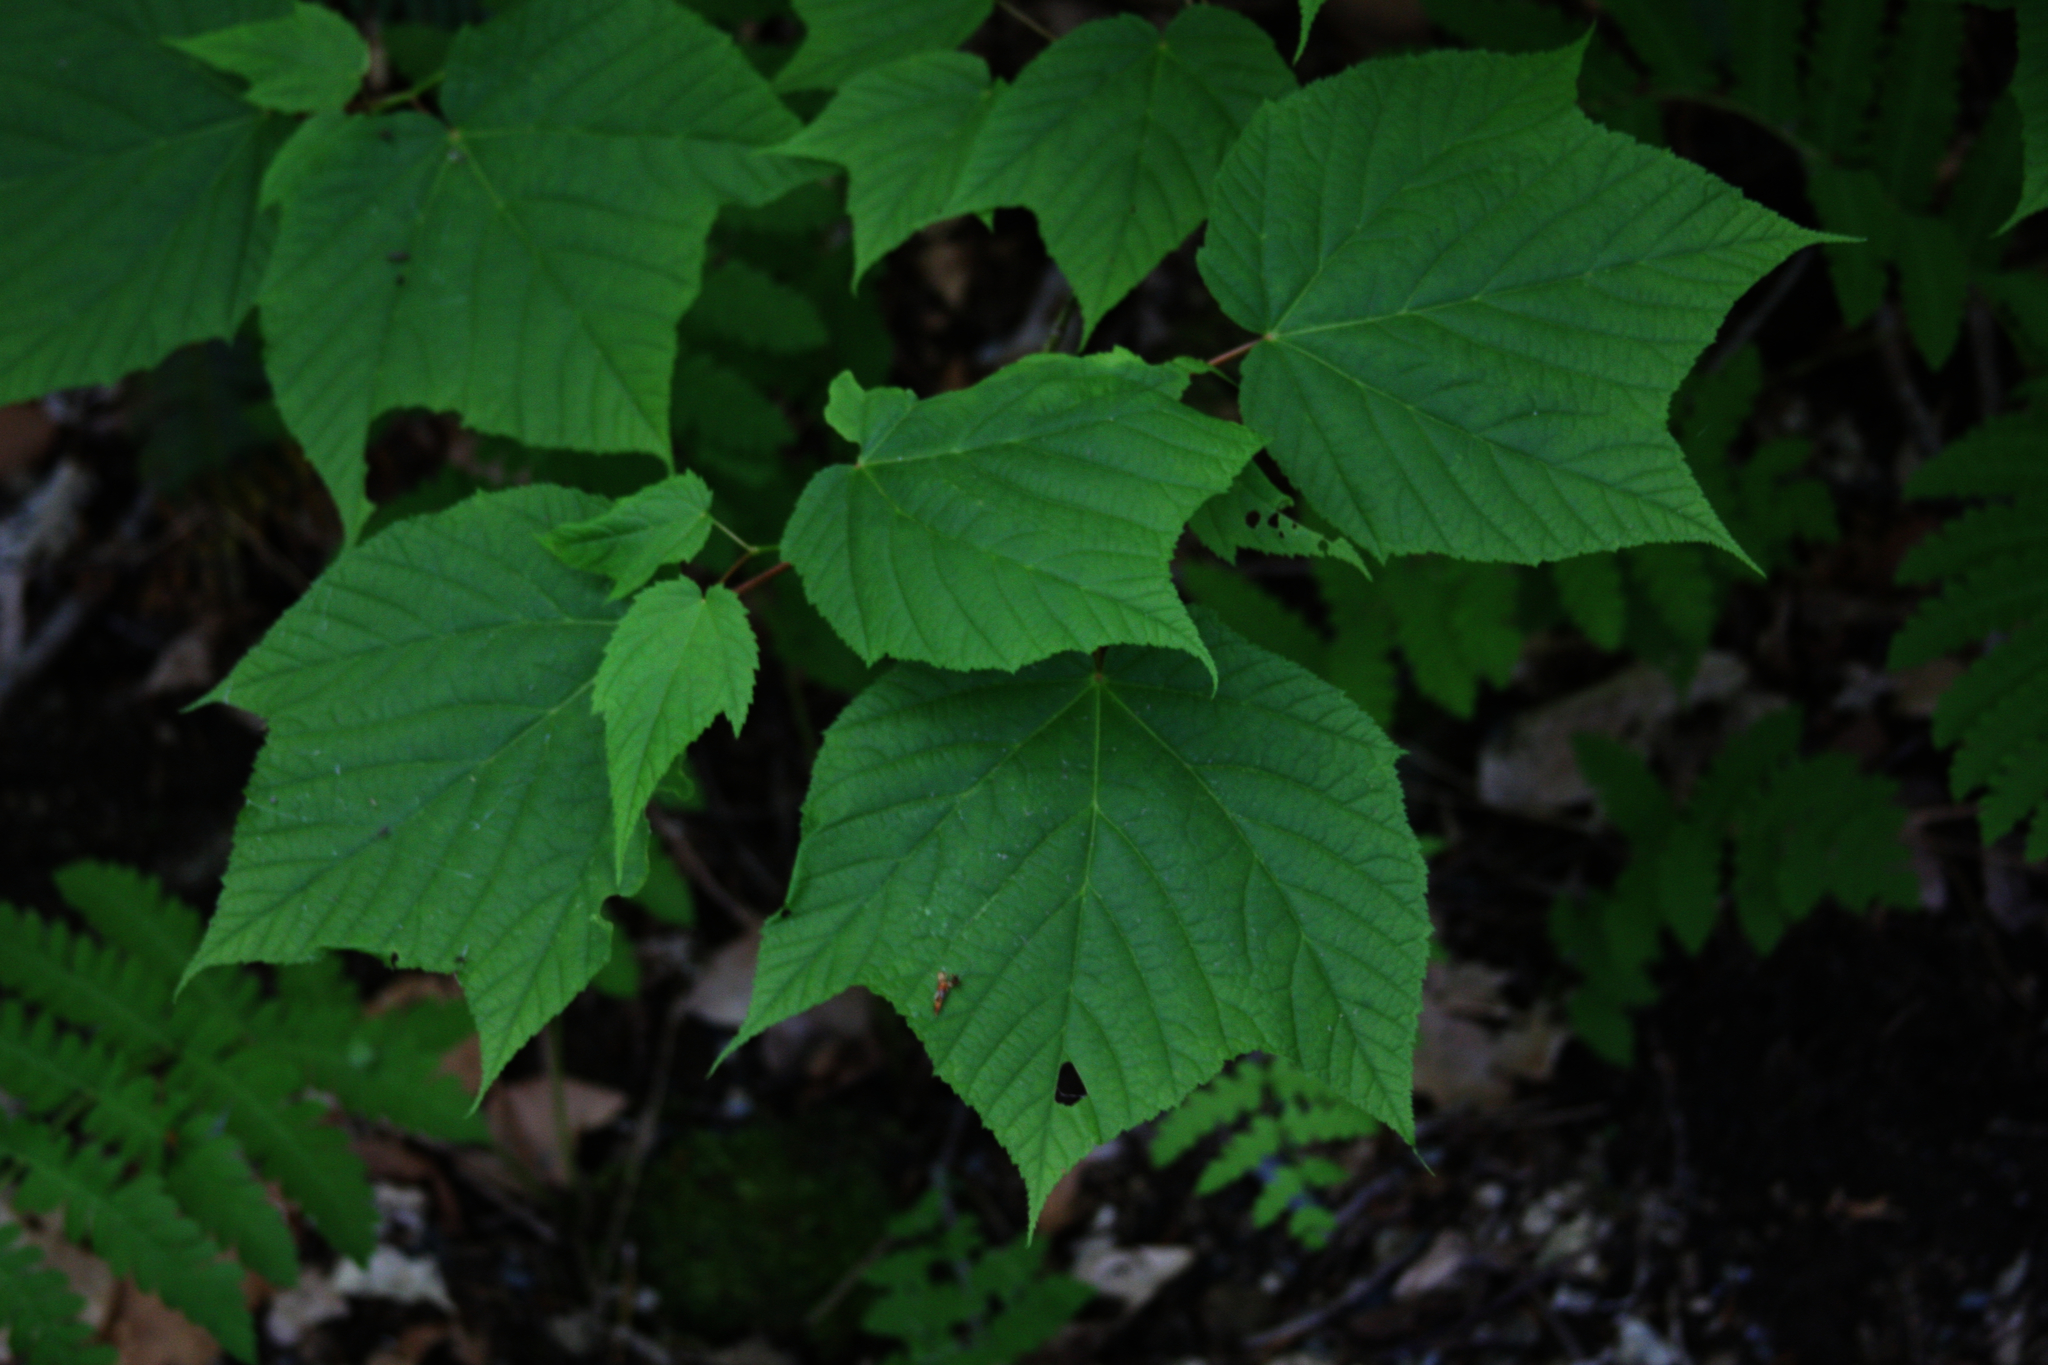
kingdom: Plantae
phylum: Tracheophyta
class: Magnoliopsida
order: Sapindales
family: Sapindaceae
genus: Acer
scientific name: Acer pensylvanicum
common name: Moosewood
